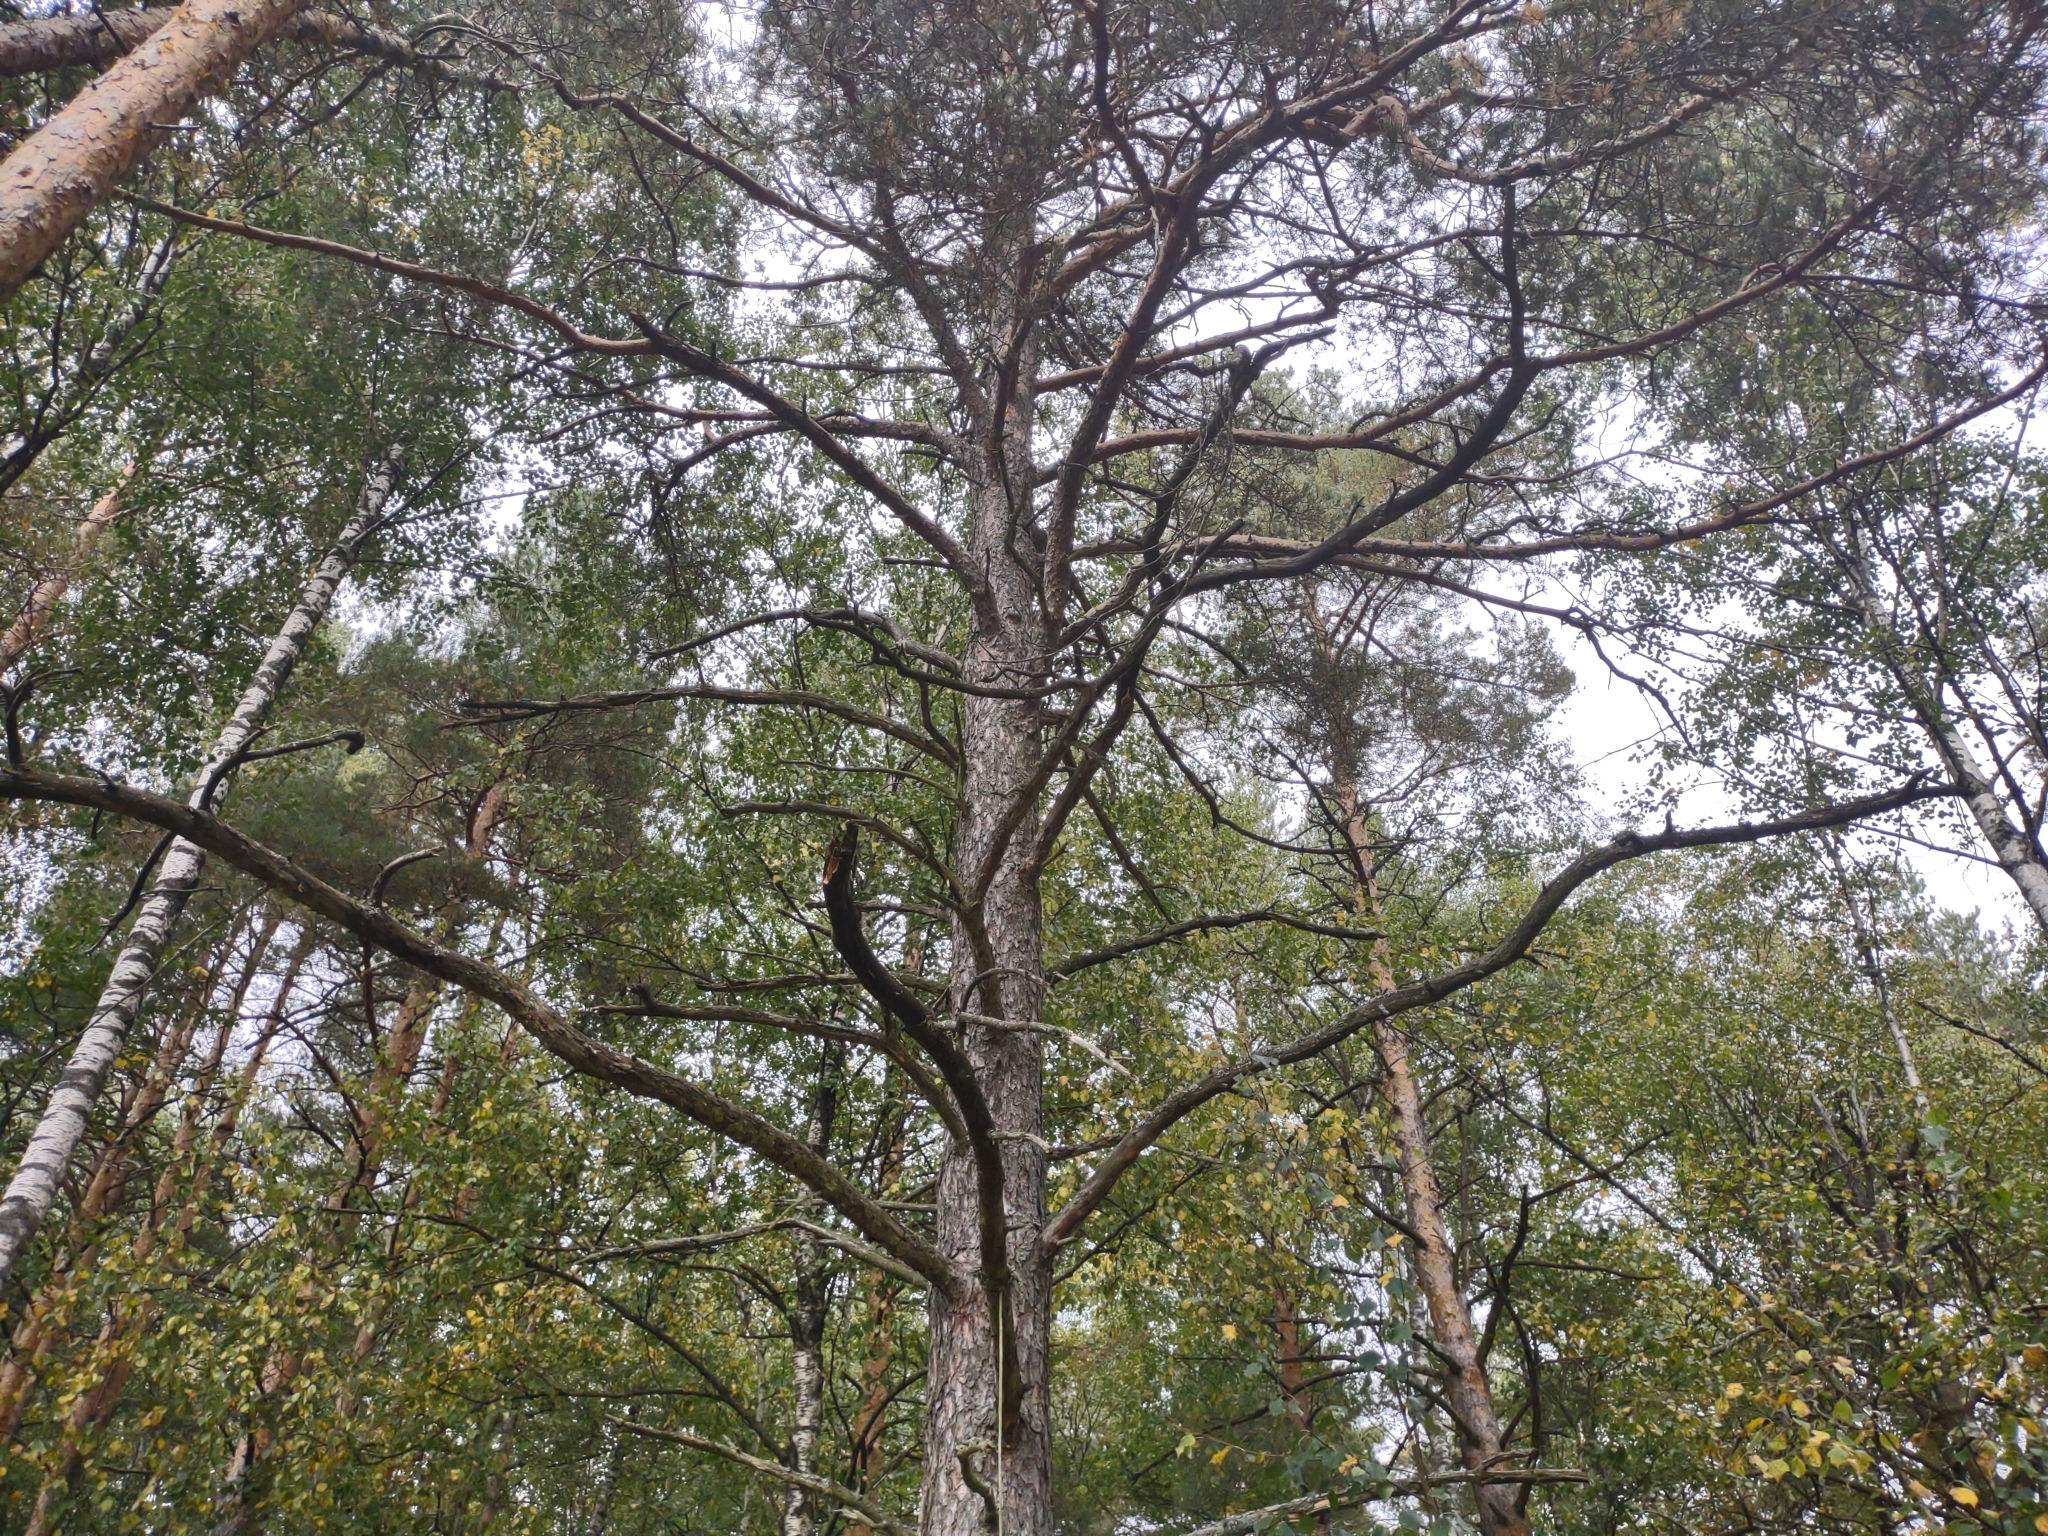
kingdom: Plantae
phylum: Tracheophyta
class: Pinopsida
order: Pinales
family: Pinaceae
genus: Pinus
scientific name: Pinus sylvestris
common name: Scots pine
